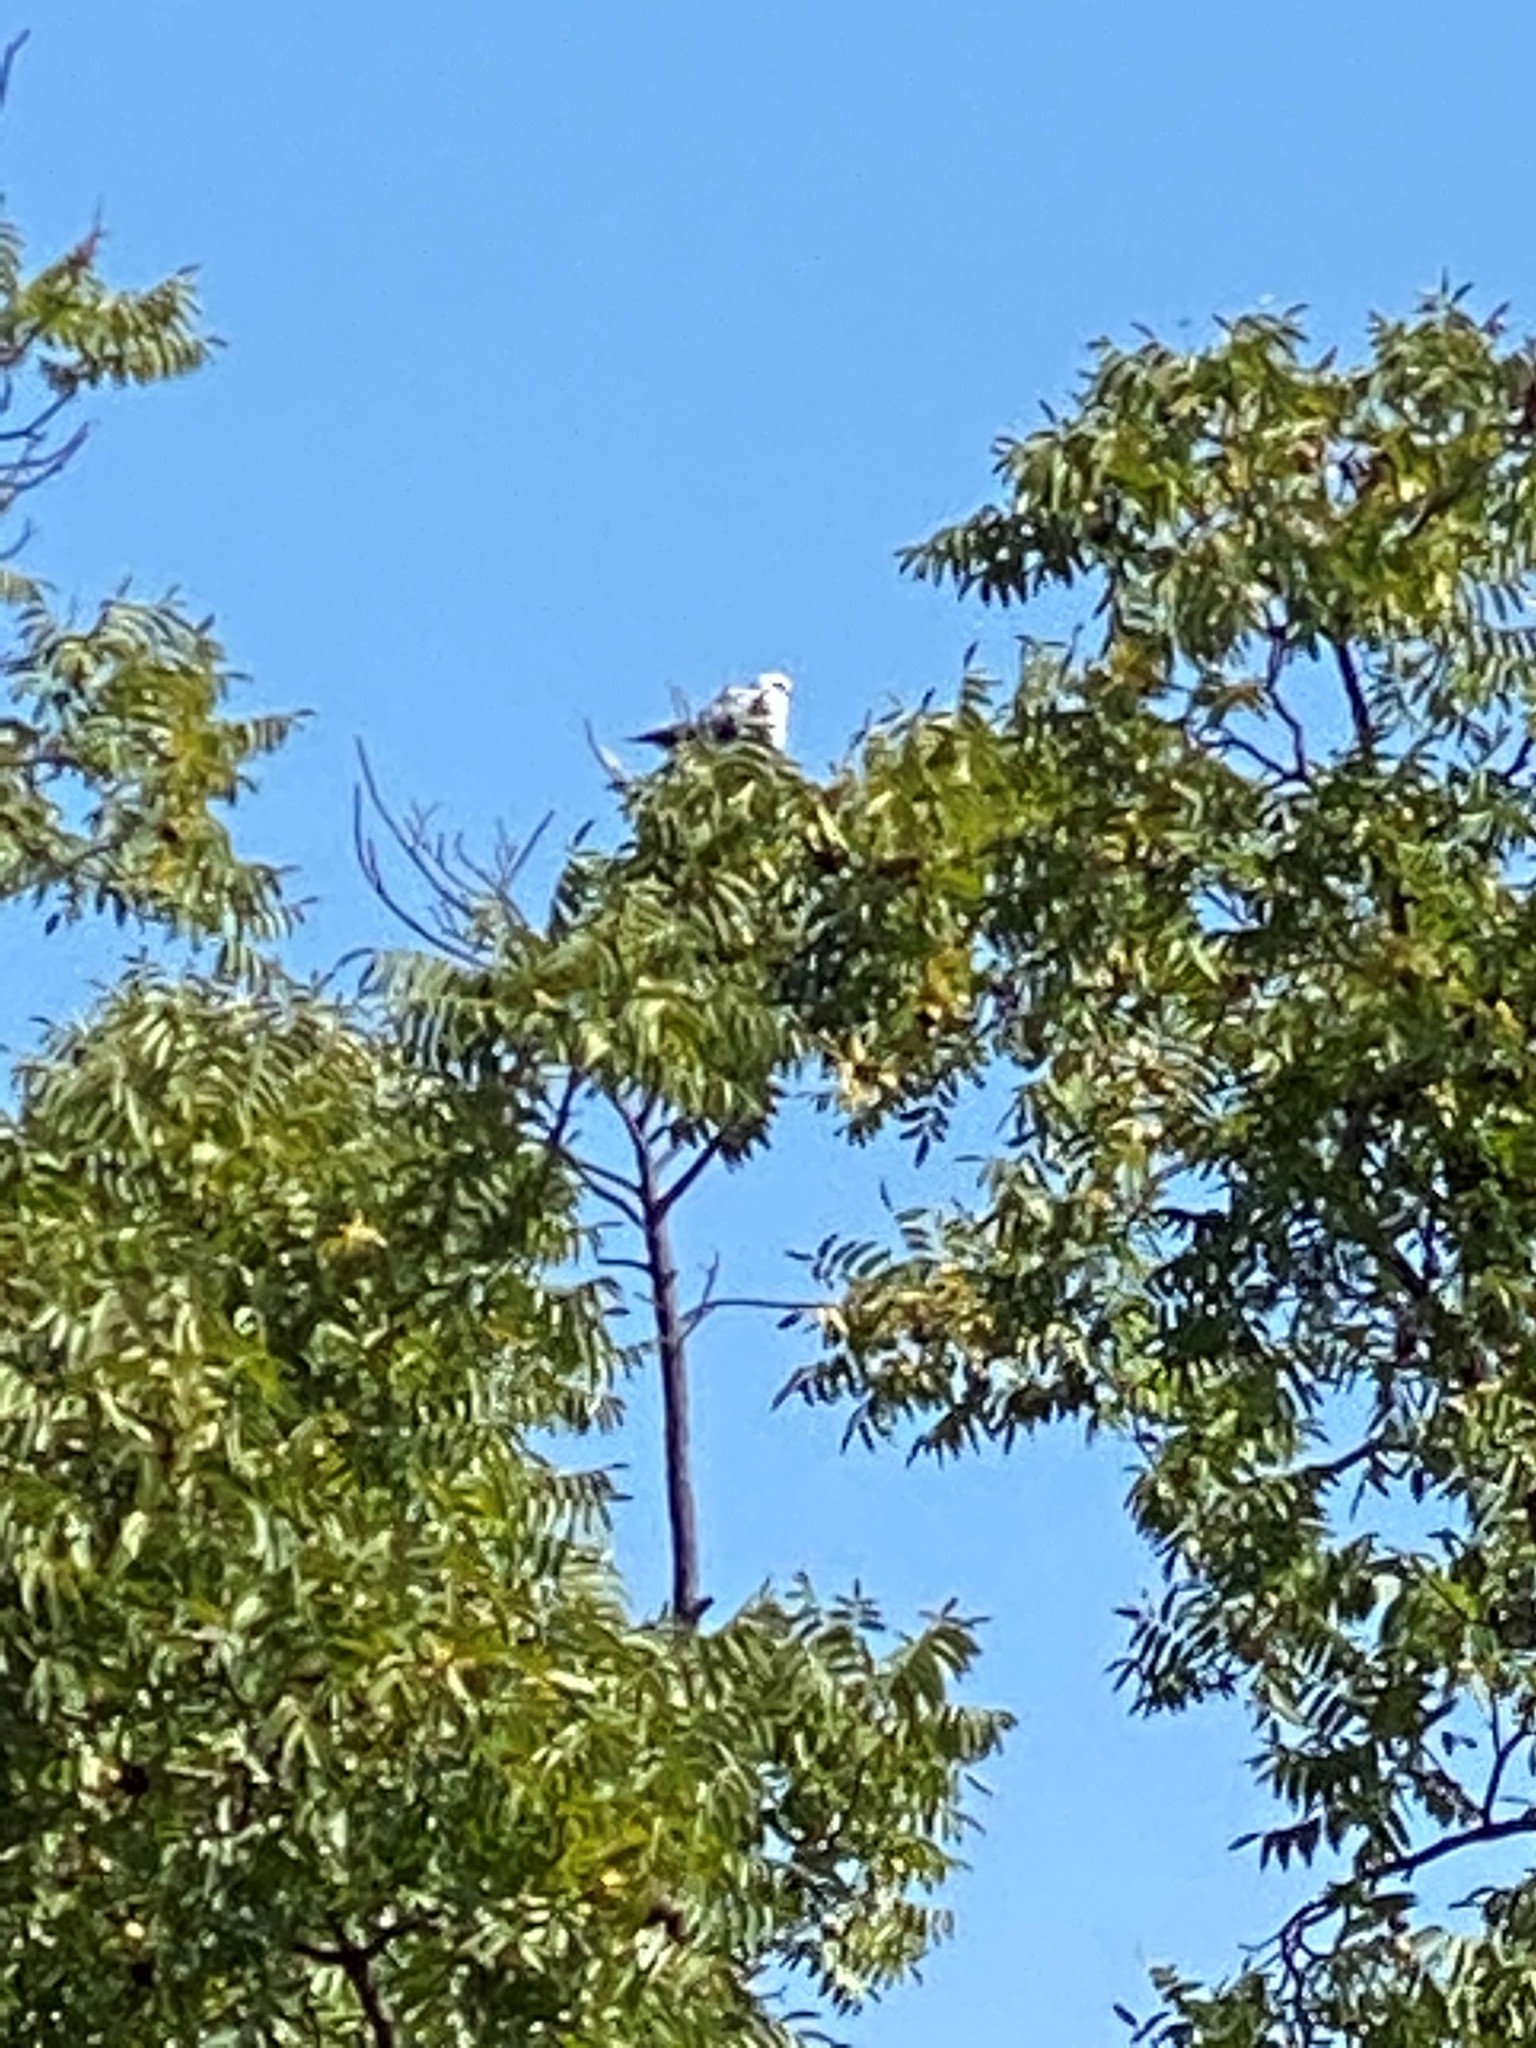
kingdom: Animalia
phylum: Chordata
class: Aves
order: Accipitriformes
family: Accipitridae
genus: Elanus
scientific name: Elanus leucurus
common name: White-tailed kite
